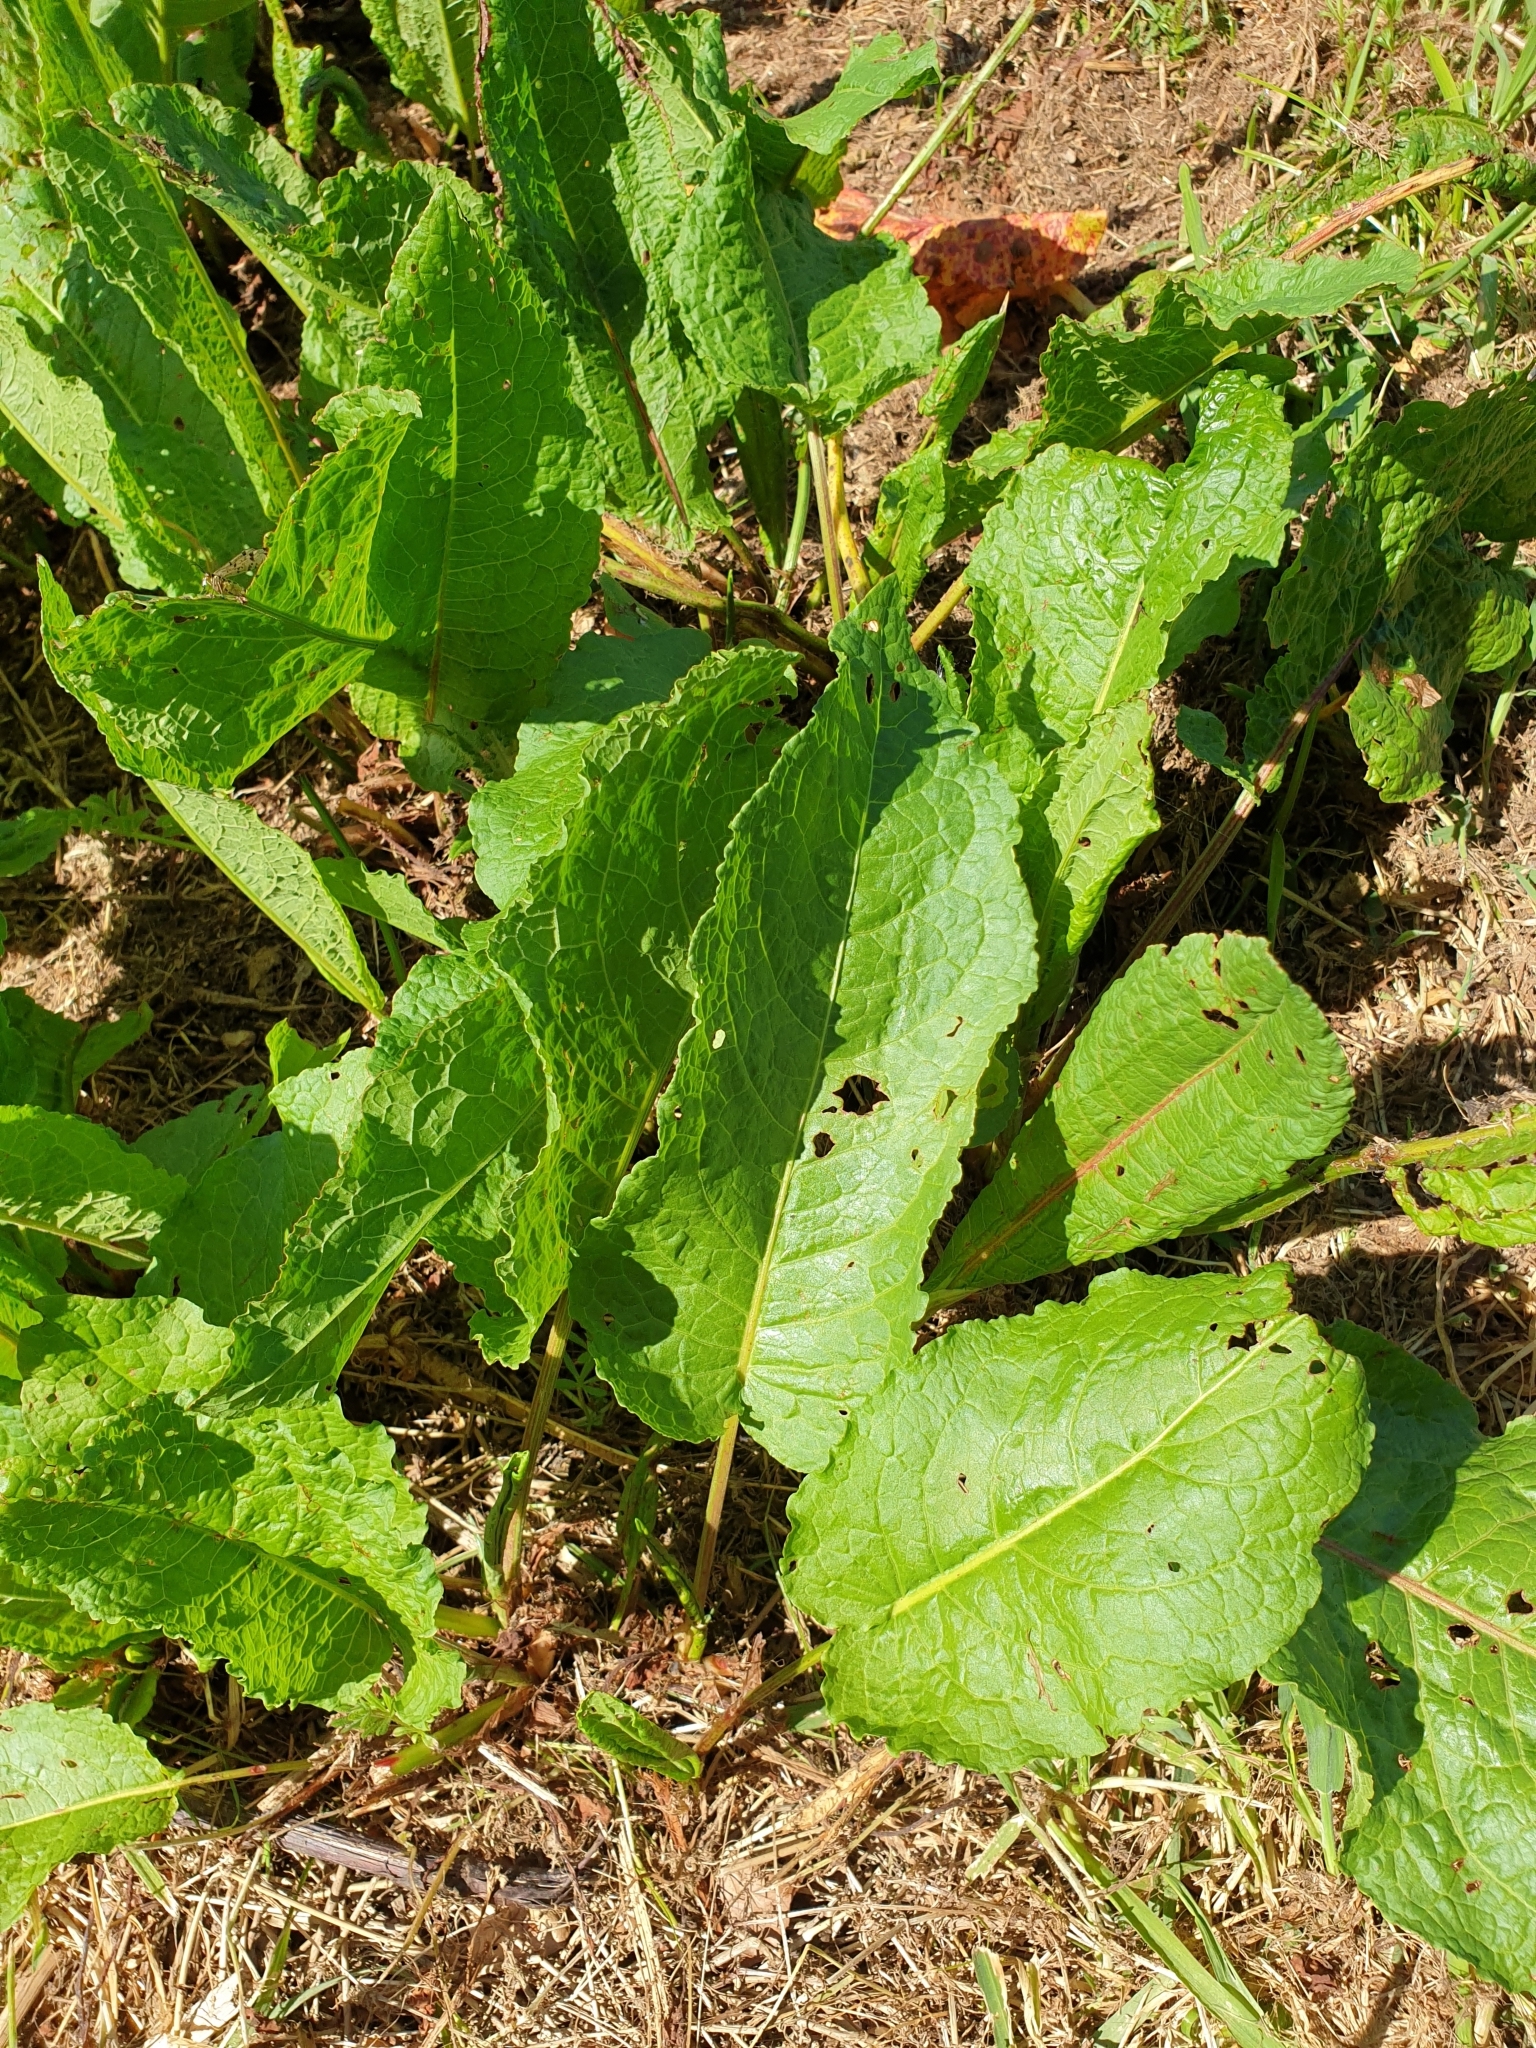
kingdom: Plantae
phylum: Tracheophyta
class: Magnoliopsida
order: Caryophyllales
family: Polygonaceae
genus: Rumex
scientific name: Rumex obtusifolius
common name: Bitter dock
